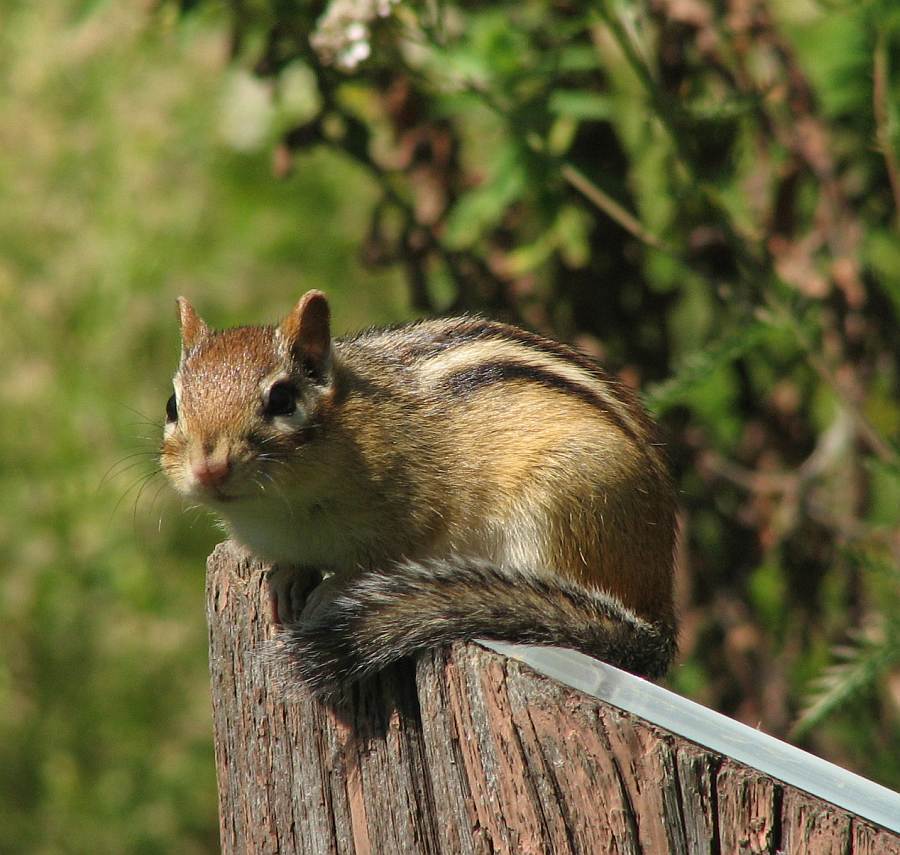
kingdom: Animalia
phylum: Chordata
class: Mammalia
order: Rodentia
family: Sciuridae
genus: Tamias
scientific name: Tamias striatus
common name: Eastern chipmunk
